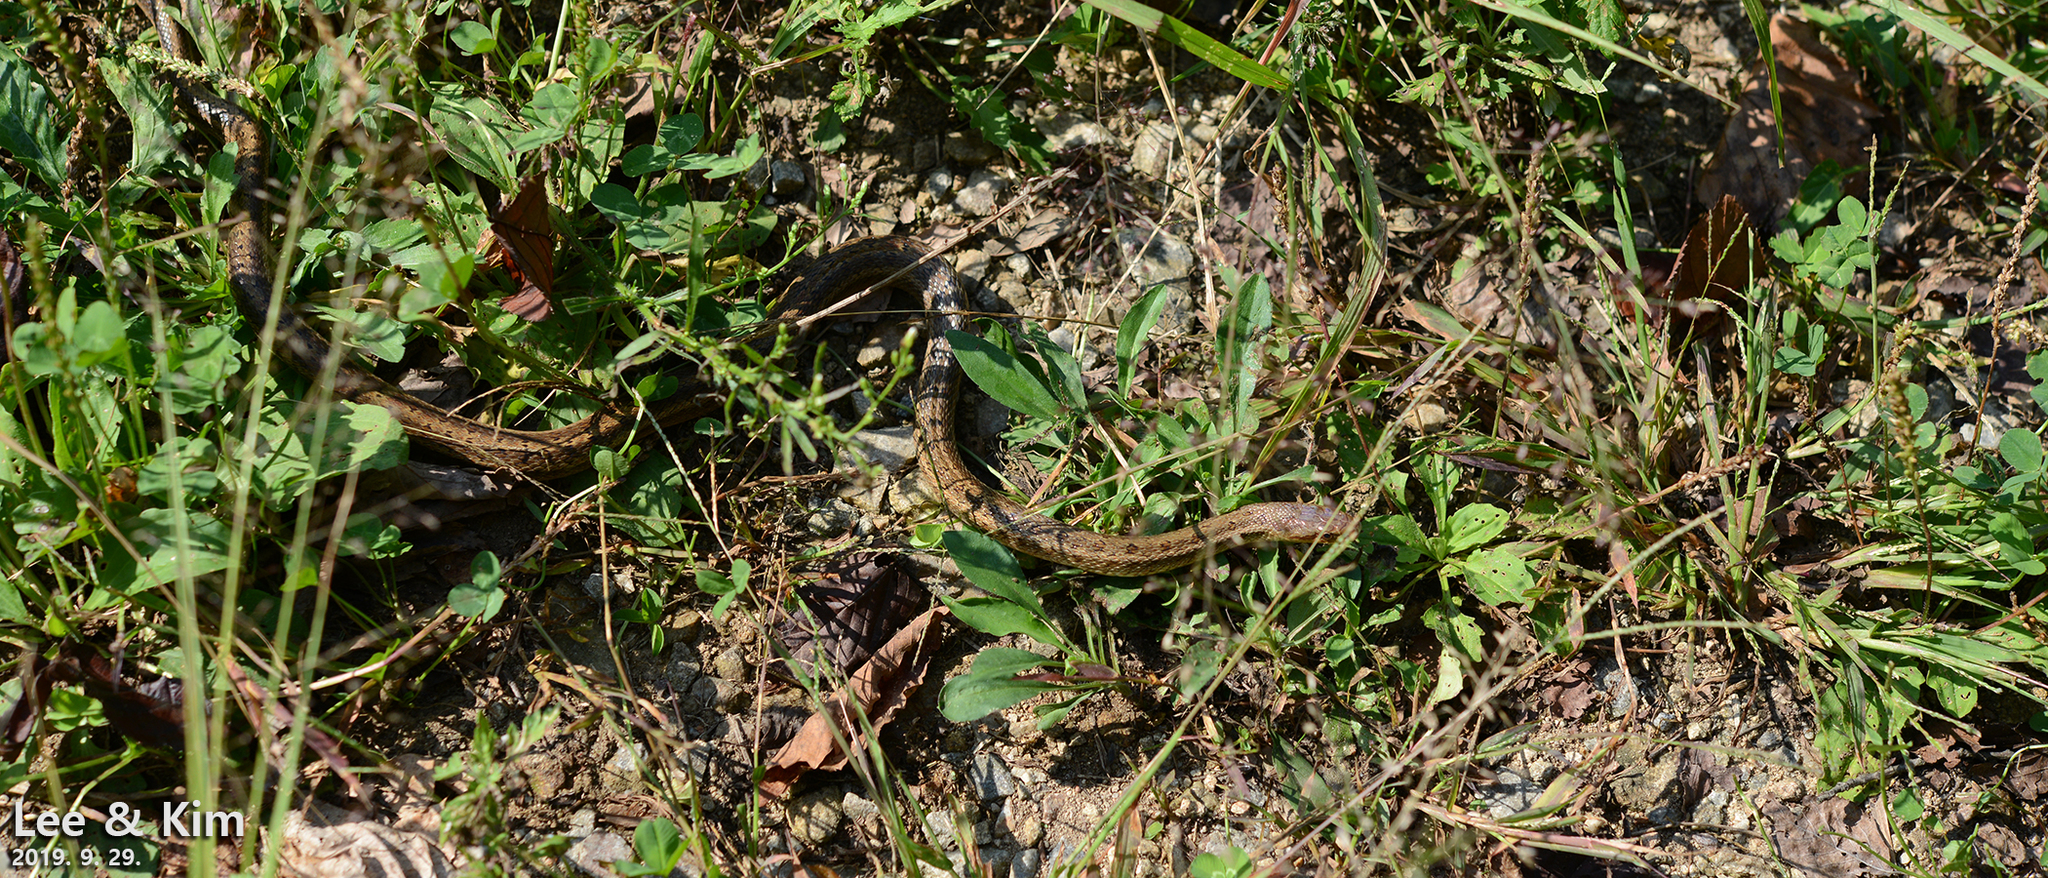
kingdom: Animalia
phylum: Chordata
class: Squamata
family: Colubridae
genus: Elaphe
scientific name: Elaphe dione
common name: Dione ratsnake
